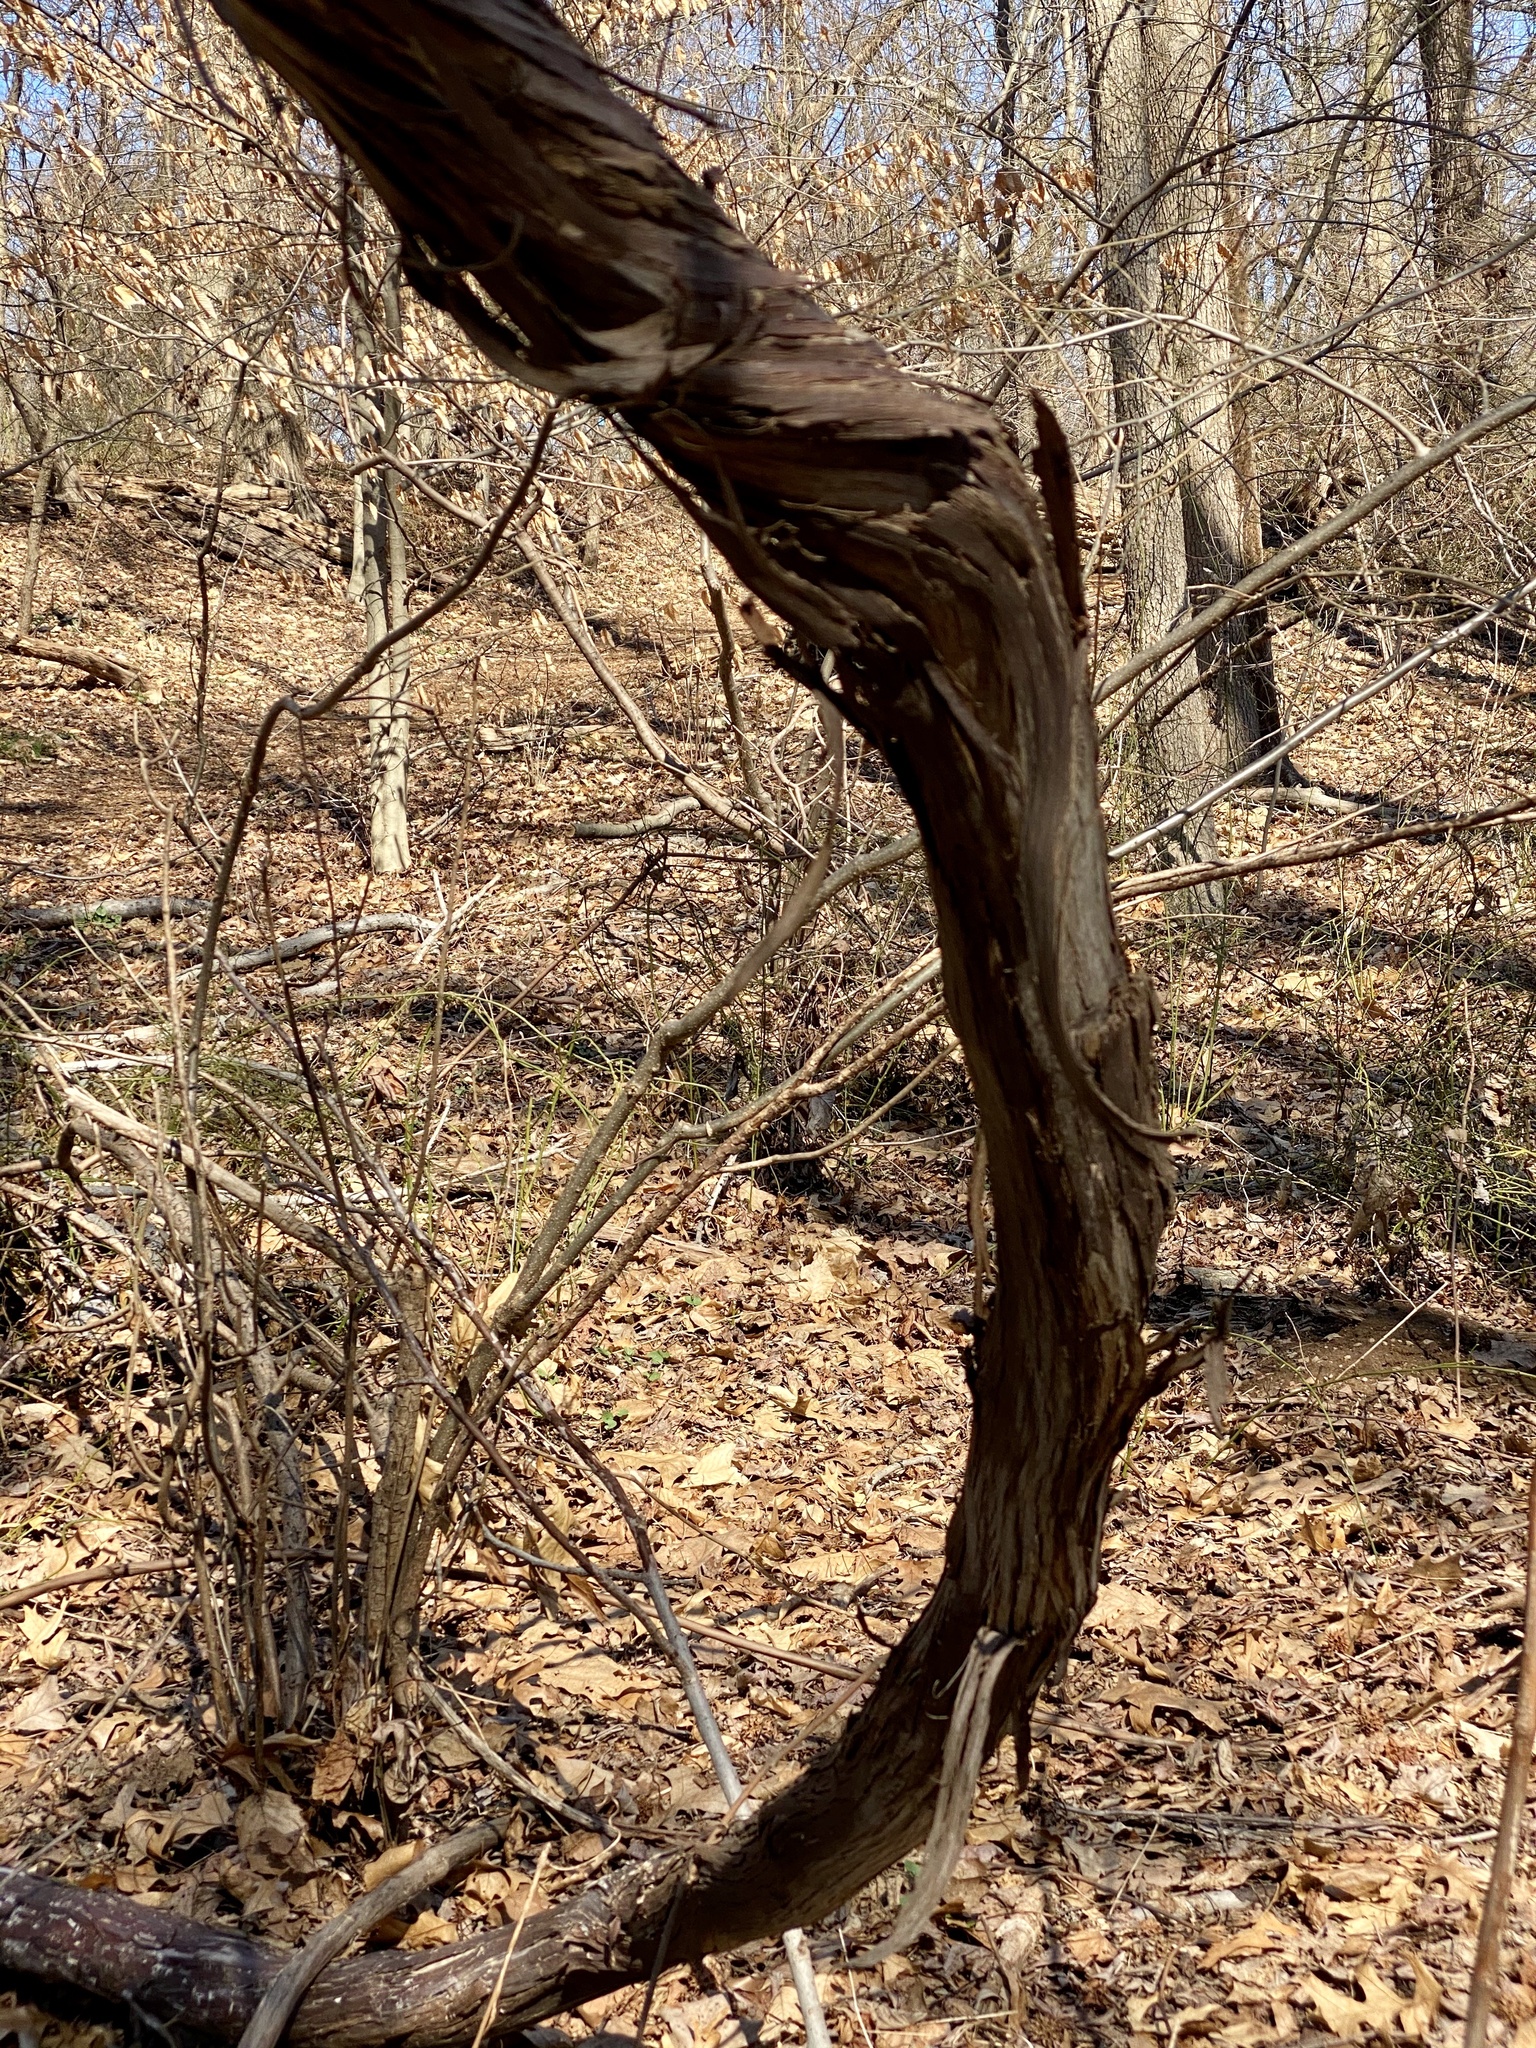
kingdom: Plantae
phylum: Tracheophyta
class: Magnoliopsida
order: Vitales
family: Vitaceae
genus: Vitis
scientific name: Vitis
